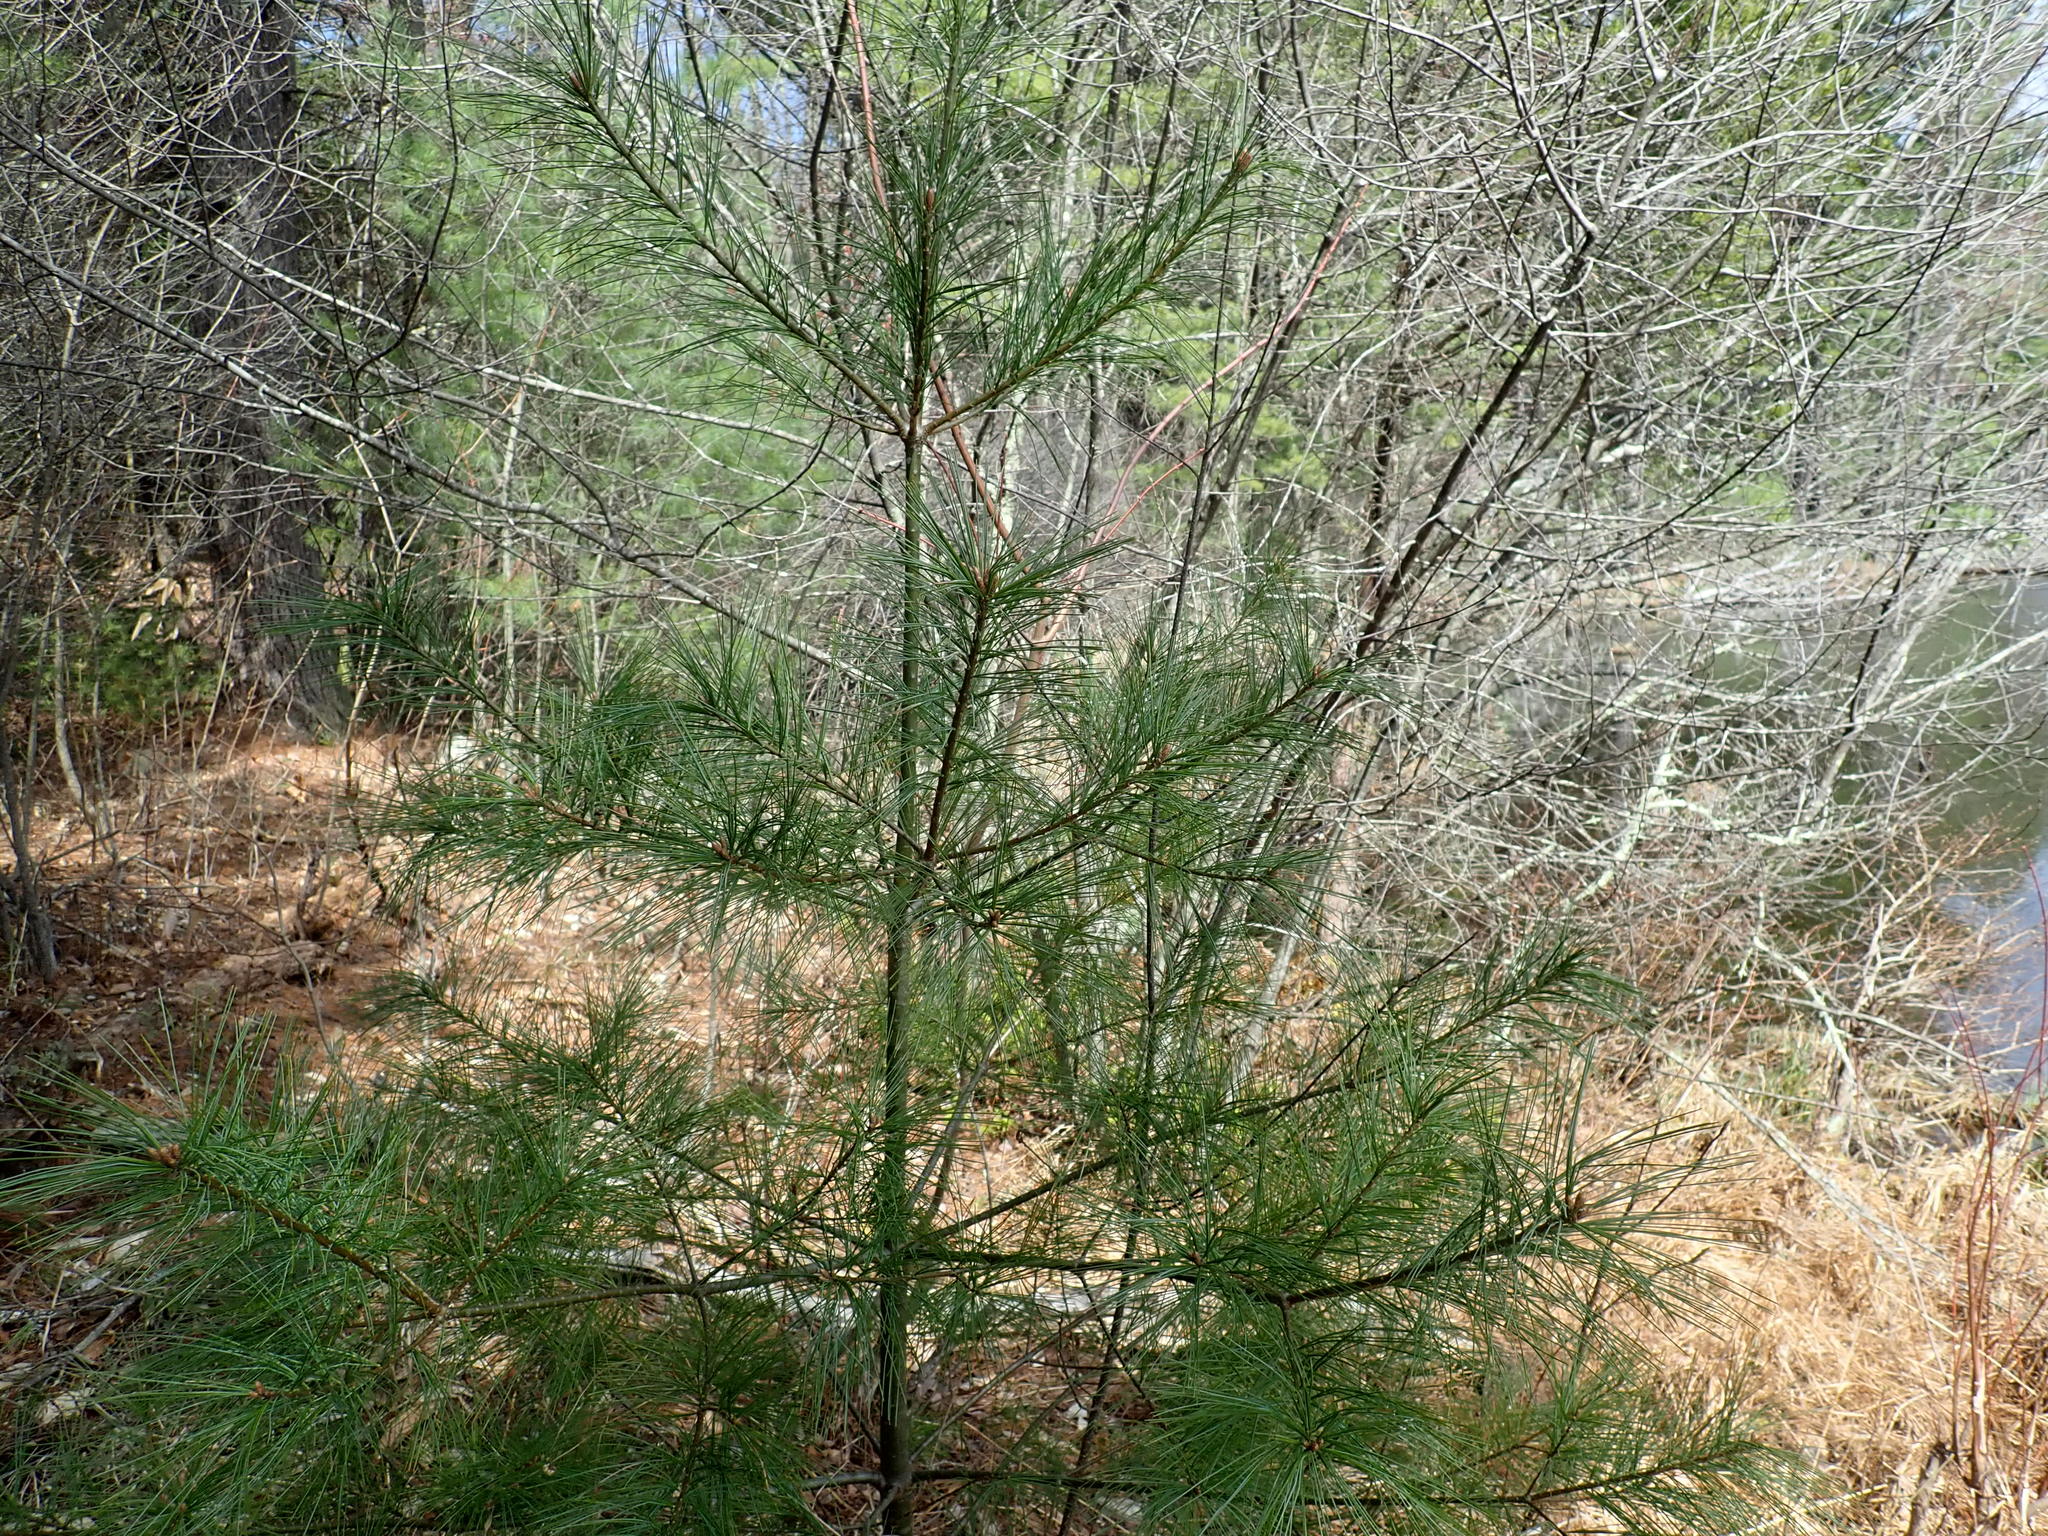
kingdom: Plantae
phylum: Tracheophyta
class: Pinopsida
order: Pinales
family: Pinaceae
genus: Pinus
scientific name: Pinus strobus
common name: Weymouth pine
